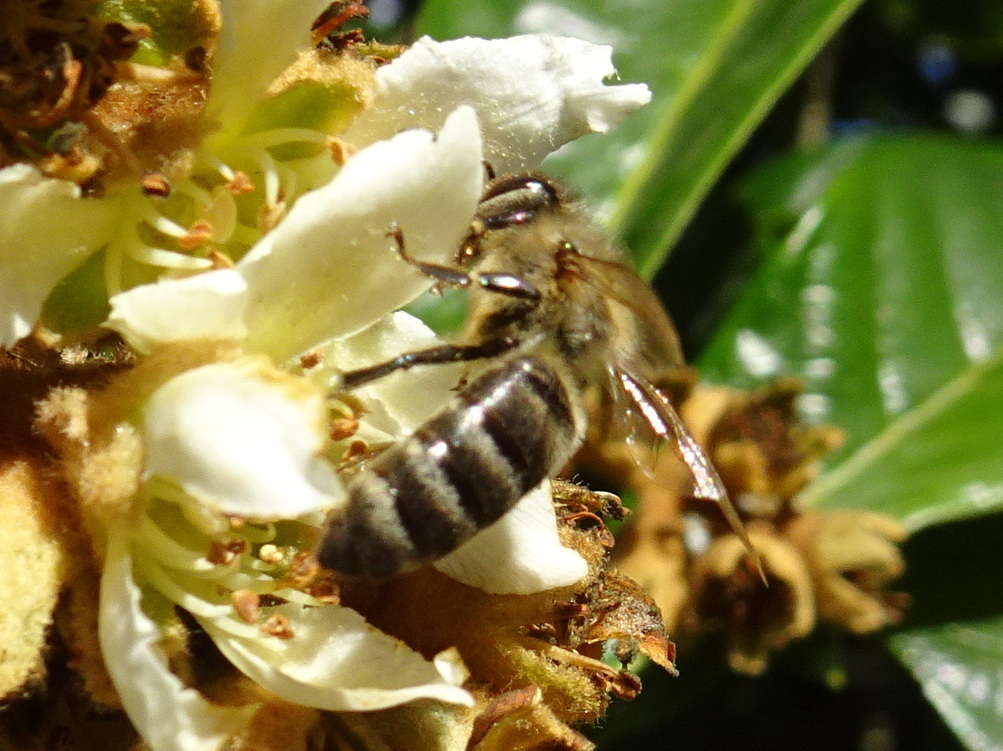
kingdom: Animalia
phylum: Arthropoda
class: Insecta
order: Hymenoptera
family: Apidae
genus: Apis
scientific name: Apis mellifera
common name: Honey bee
